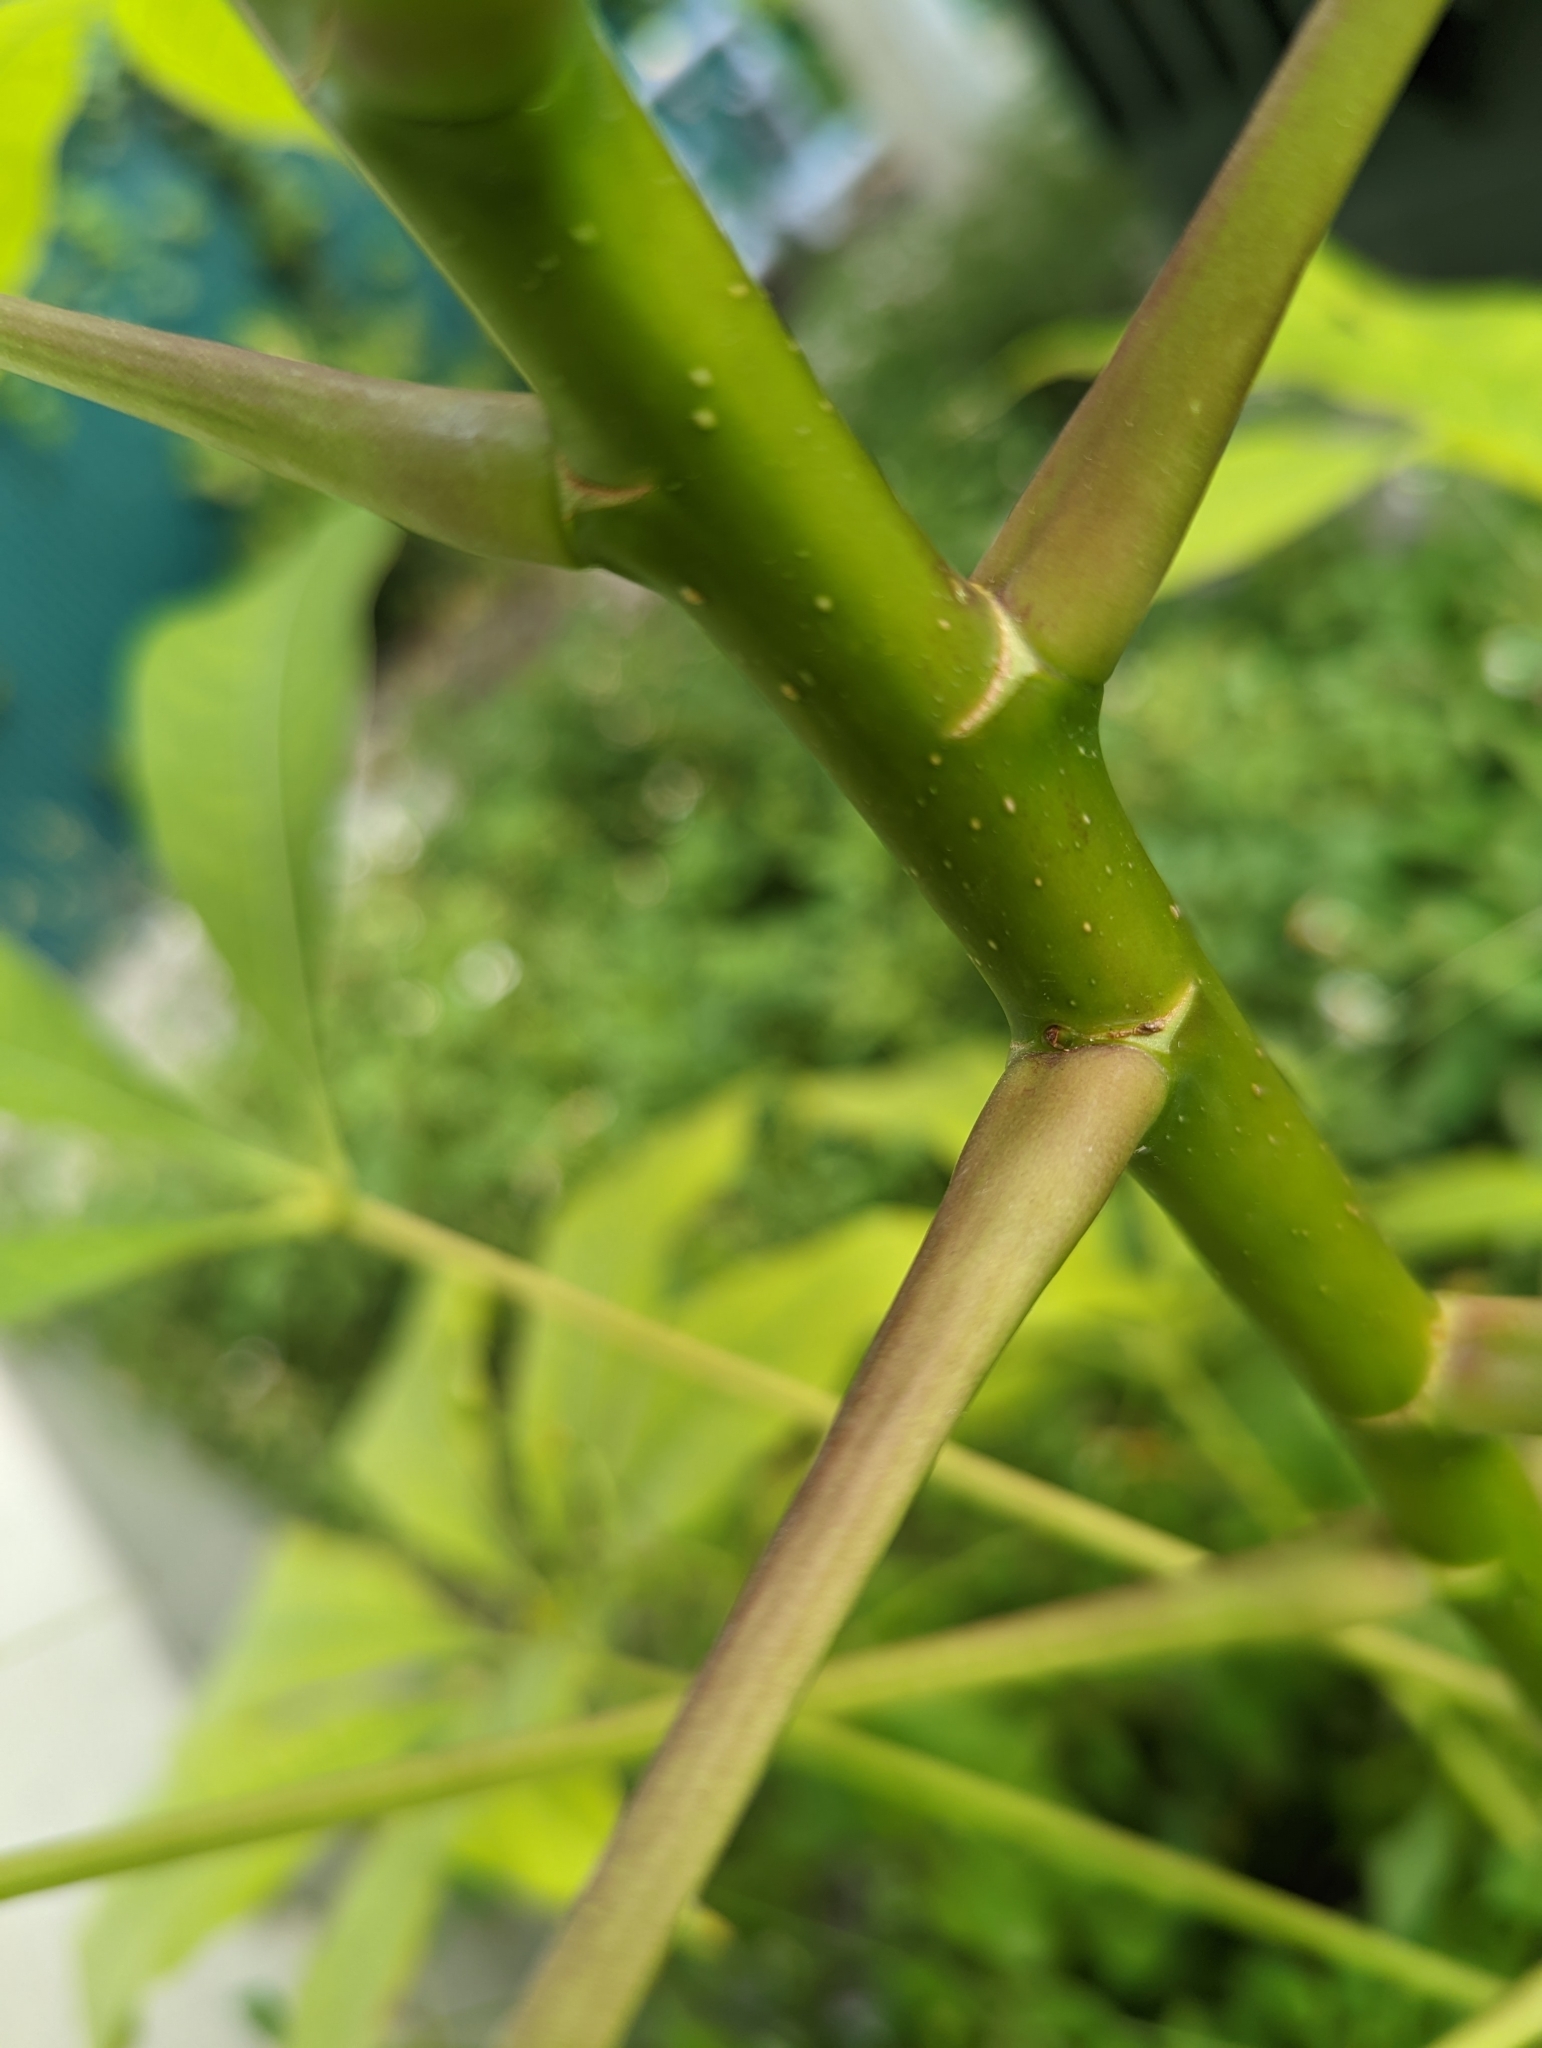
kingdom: Plantae
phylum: Tracheophyta
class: Magnoliopsida
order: Apiales
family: Araliaceae
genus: Heptapleurum
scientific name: Heptapleurum actinophyllum
